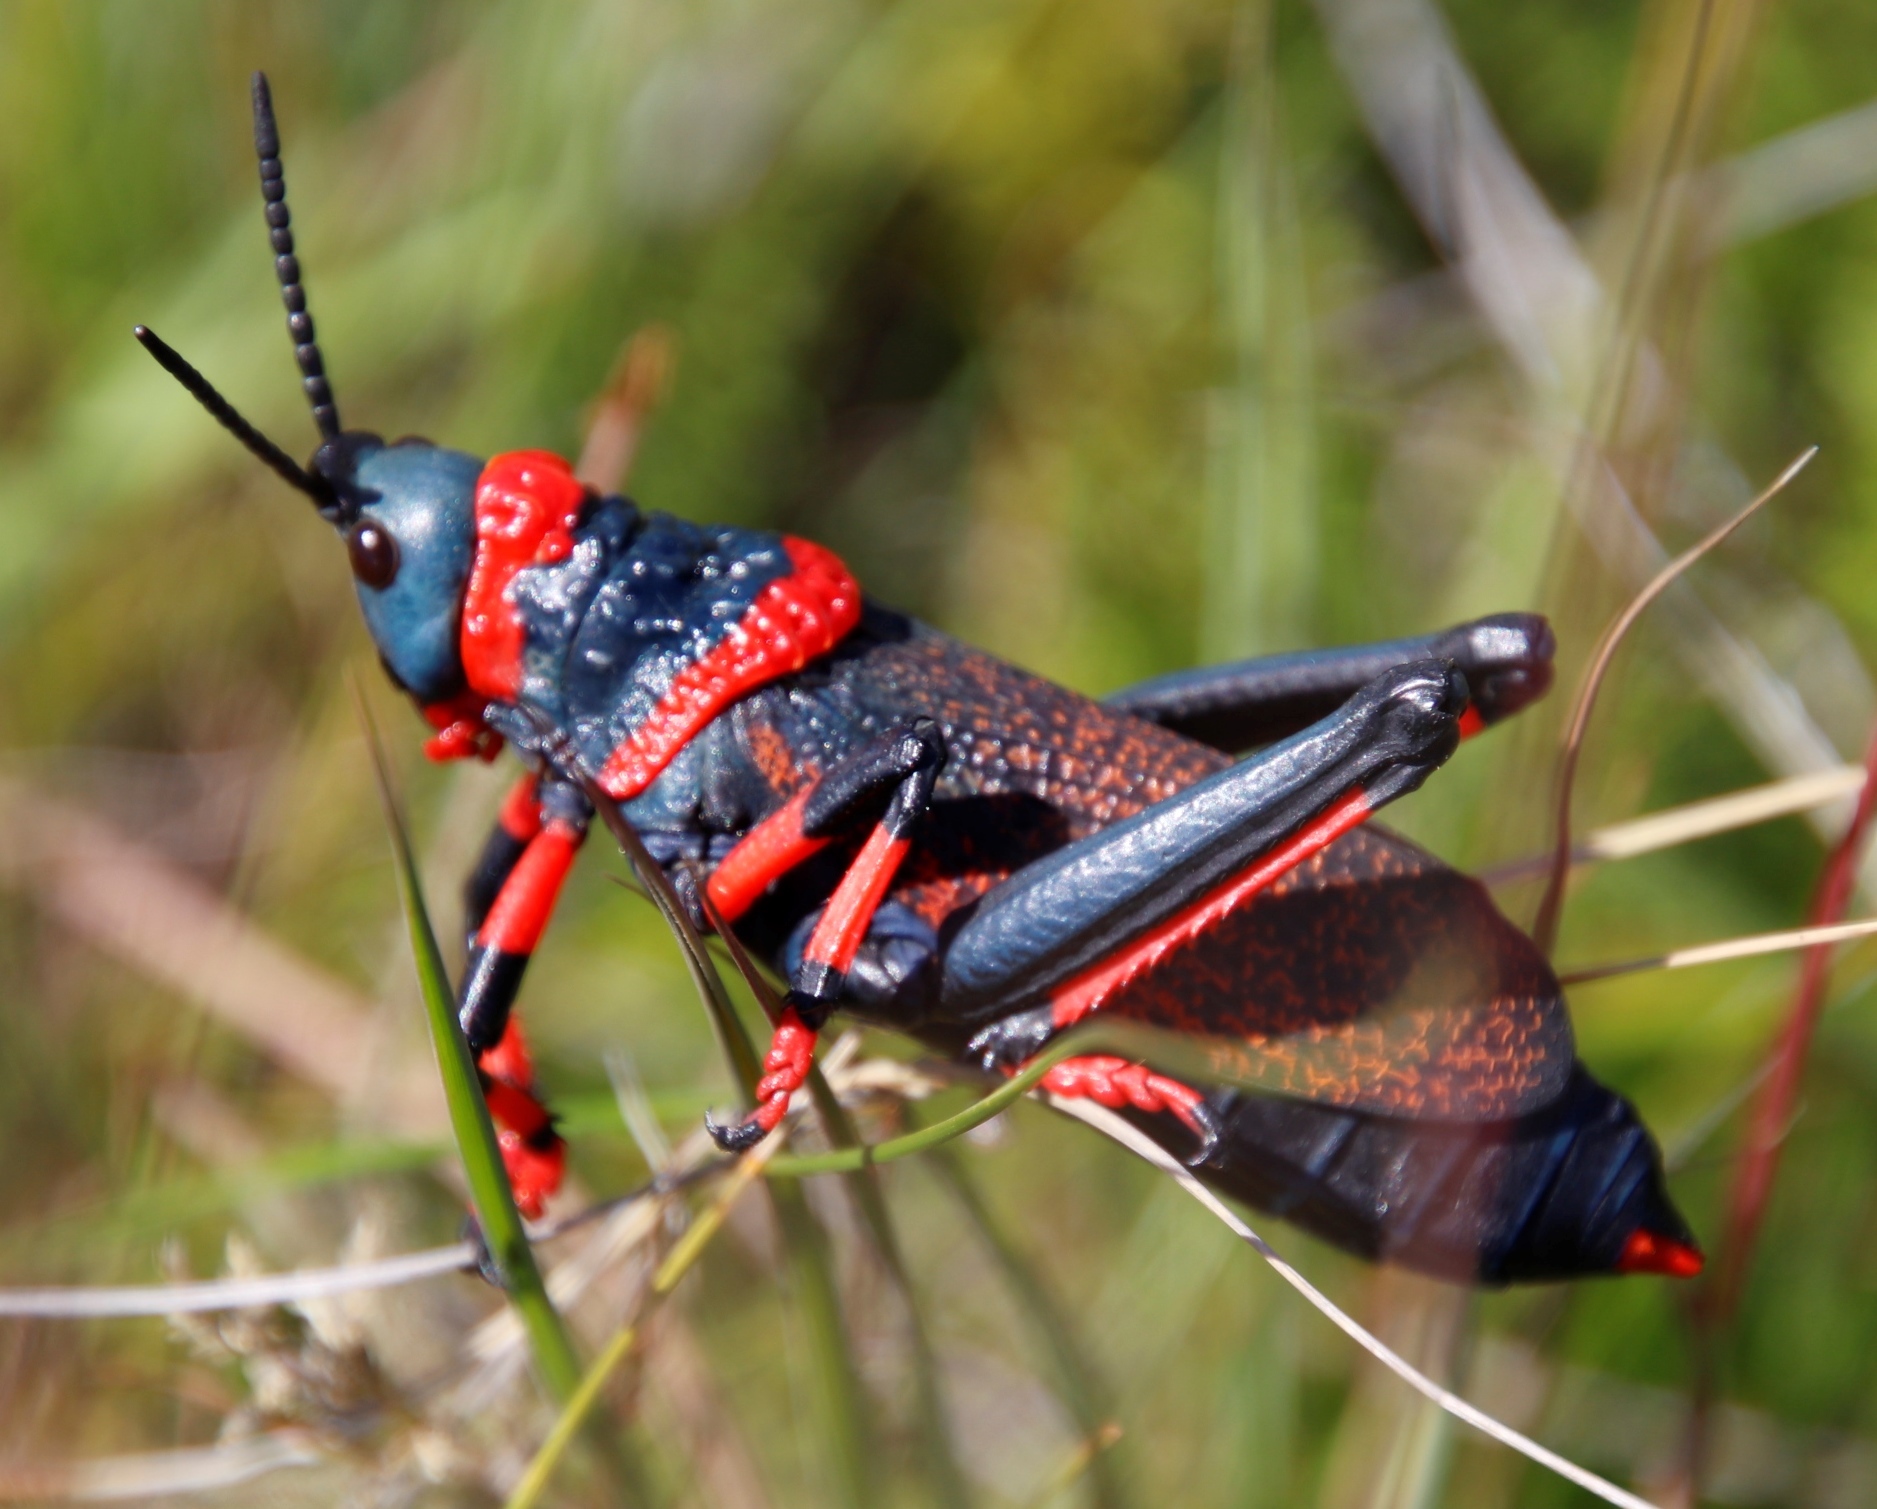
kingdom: Animalia
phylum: Arthropoda
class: Insecta
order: Orthoptera
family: Pyrgomorphidae
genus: Dictyophorus
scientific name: Dictyophorus spumans
